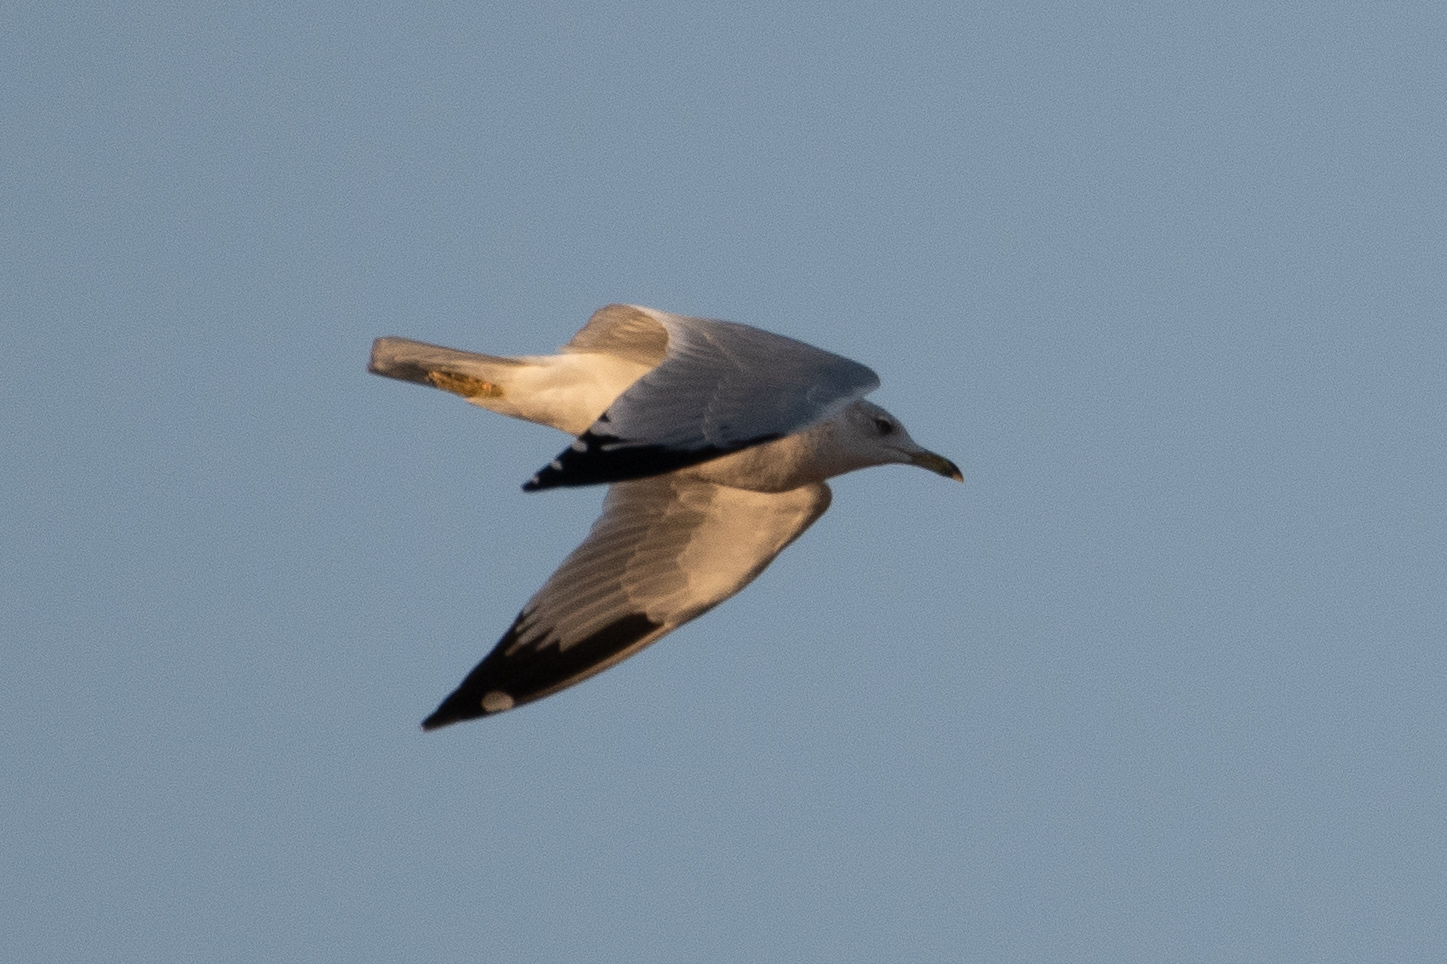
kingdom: Animalia
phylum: Chordata
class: Aves
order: Charadriiformes
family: Laridae
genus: Larus
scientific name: Larus delawarensis
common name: Ring-billed gull
